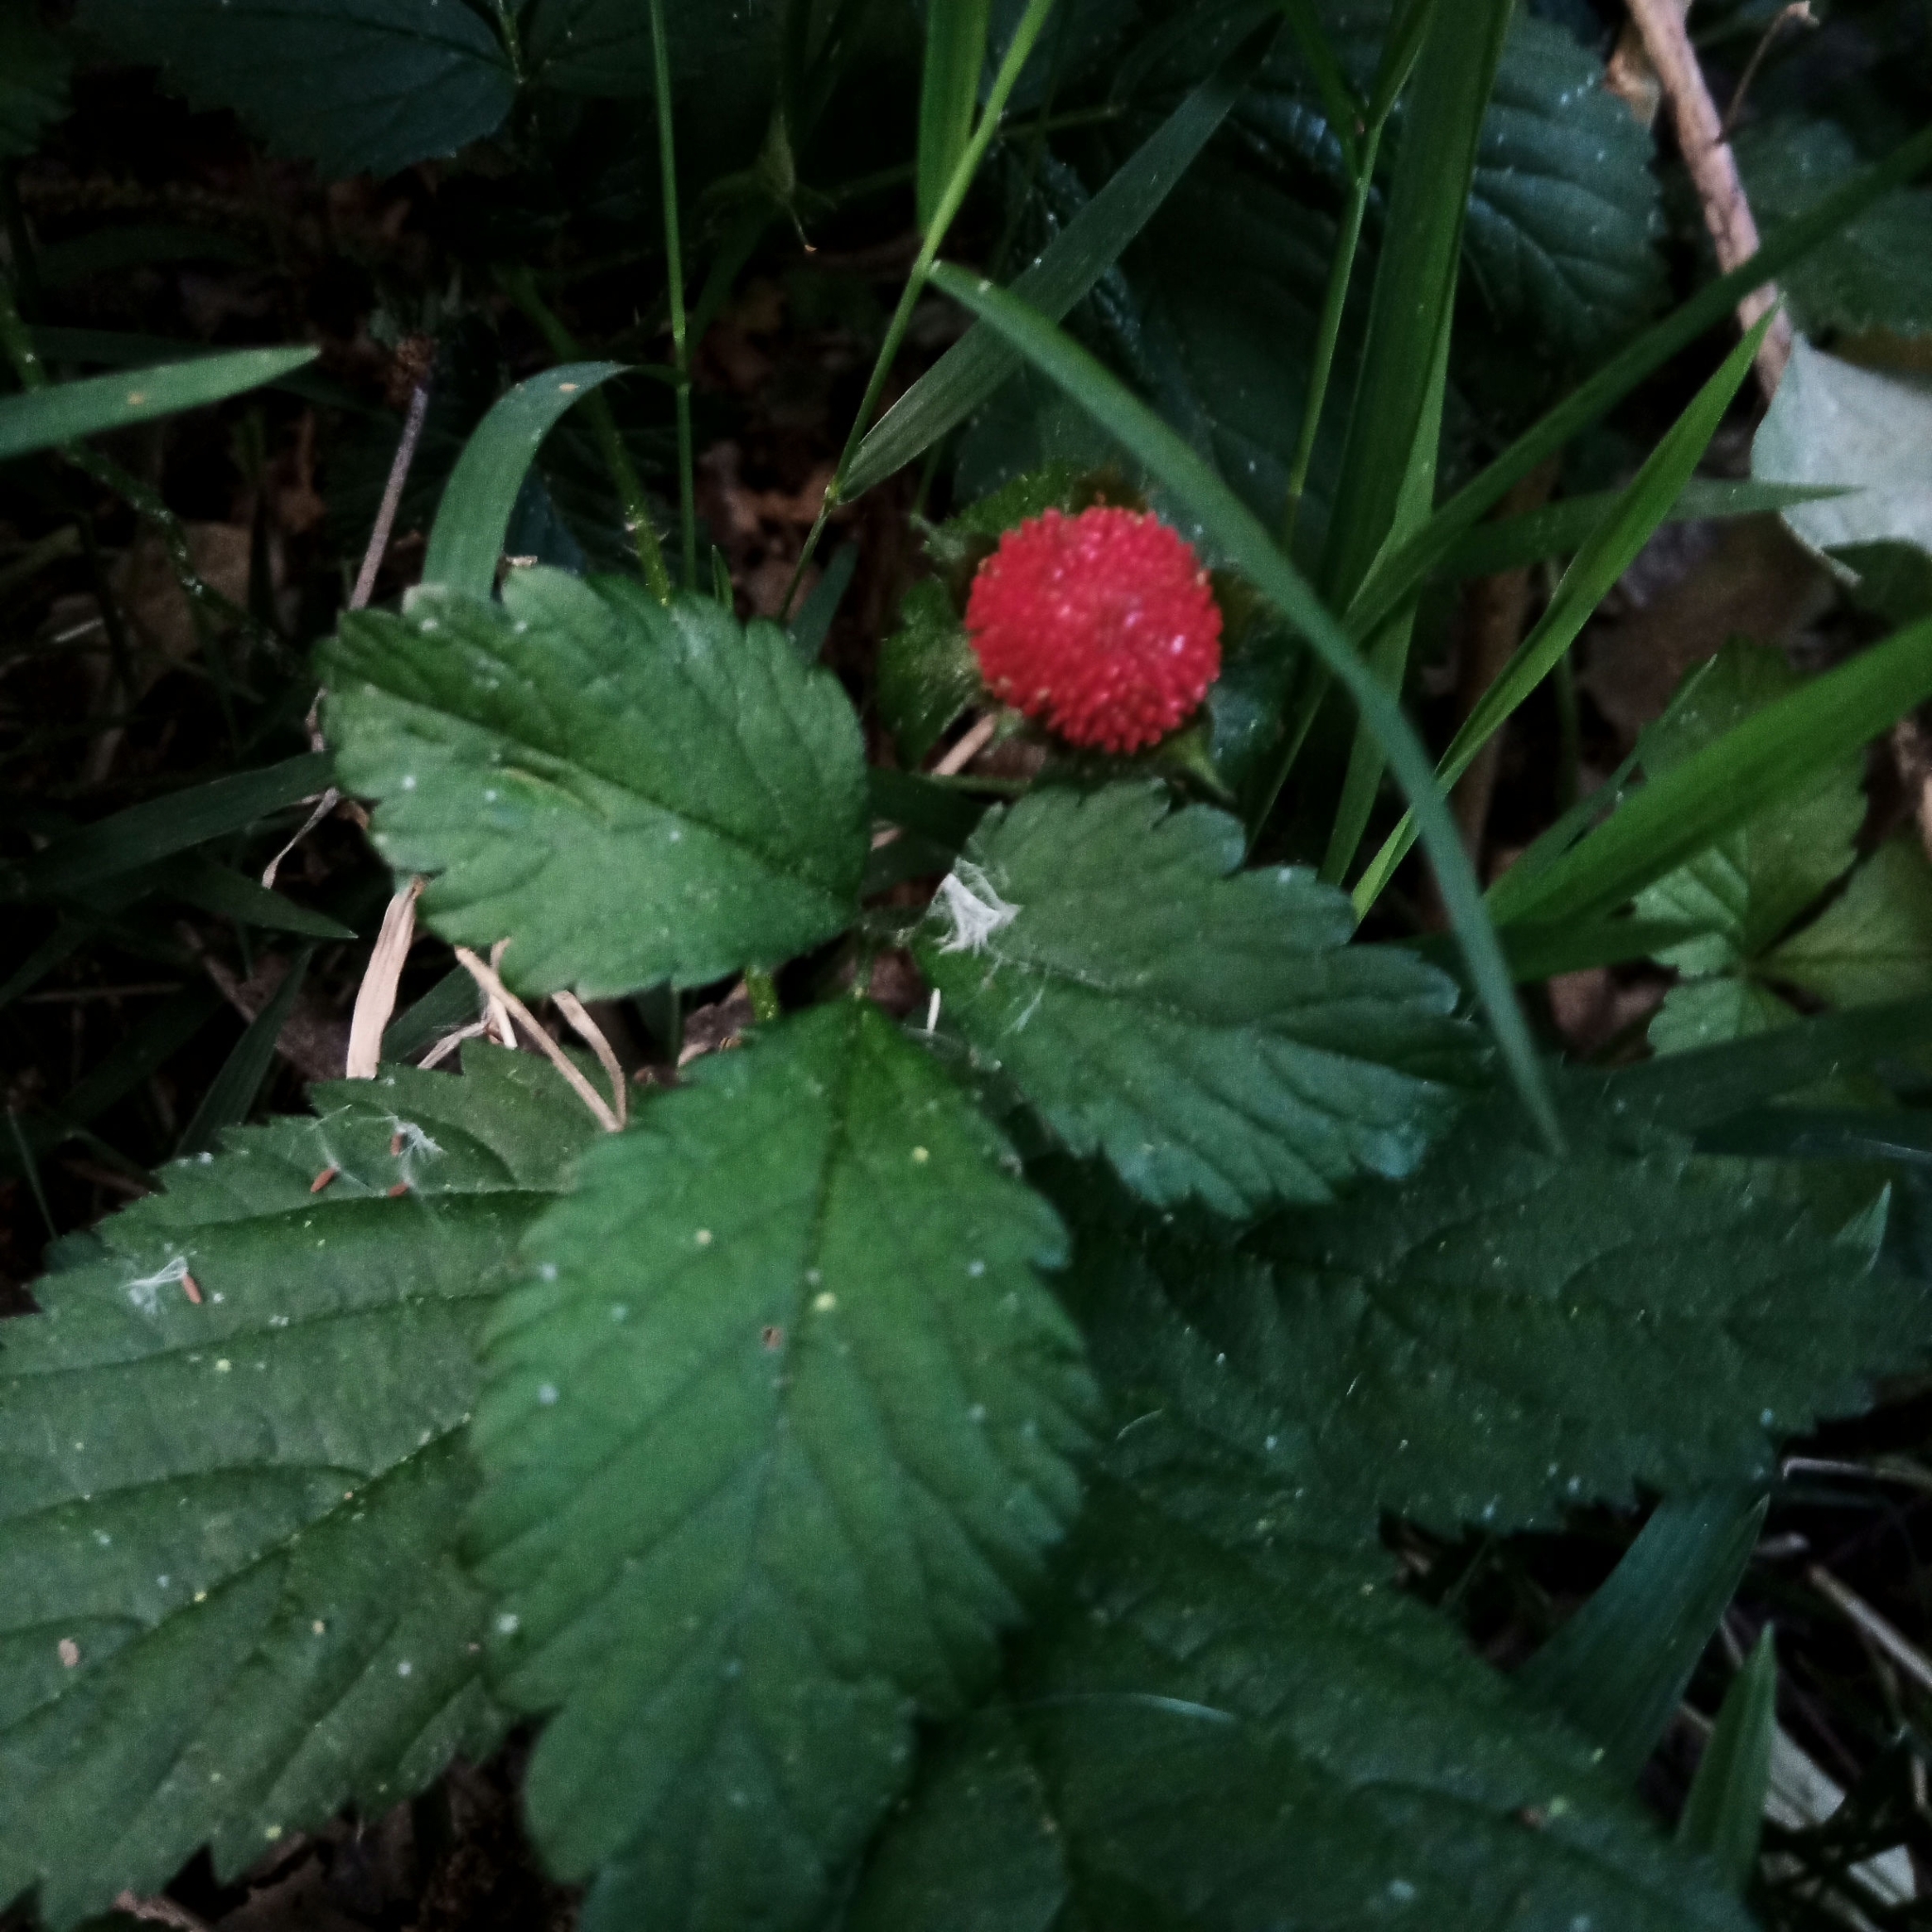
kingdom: Plantae
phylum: Tracheophyta
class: Magnoliopsida
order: Rosales
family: Rosaceae
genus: Potentilla
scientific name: Potentilla indica
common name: Yellow-flowered strawberry
